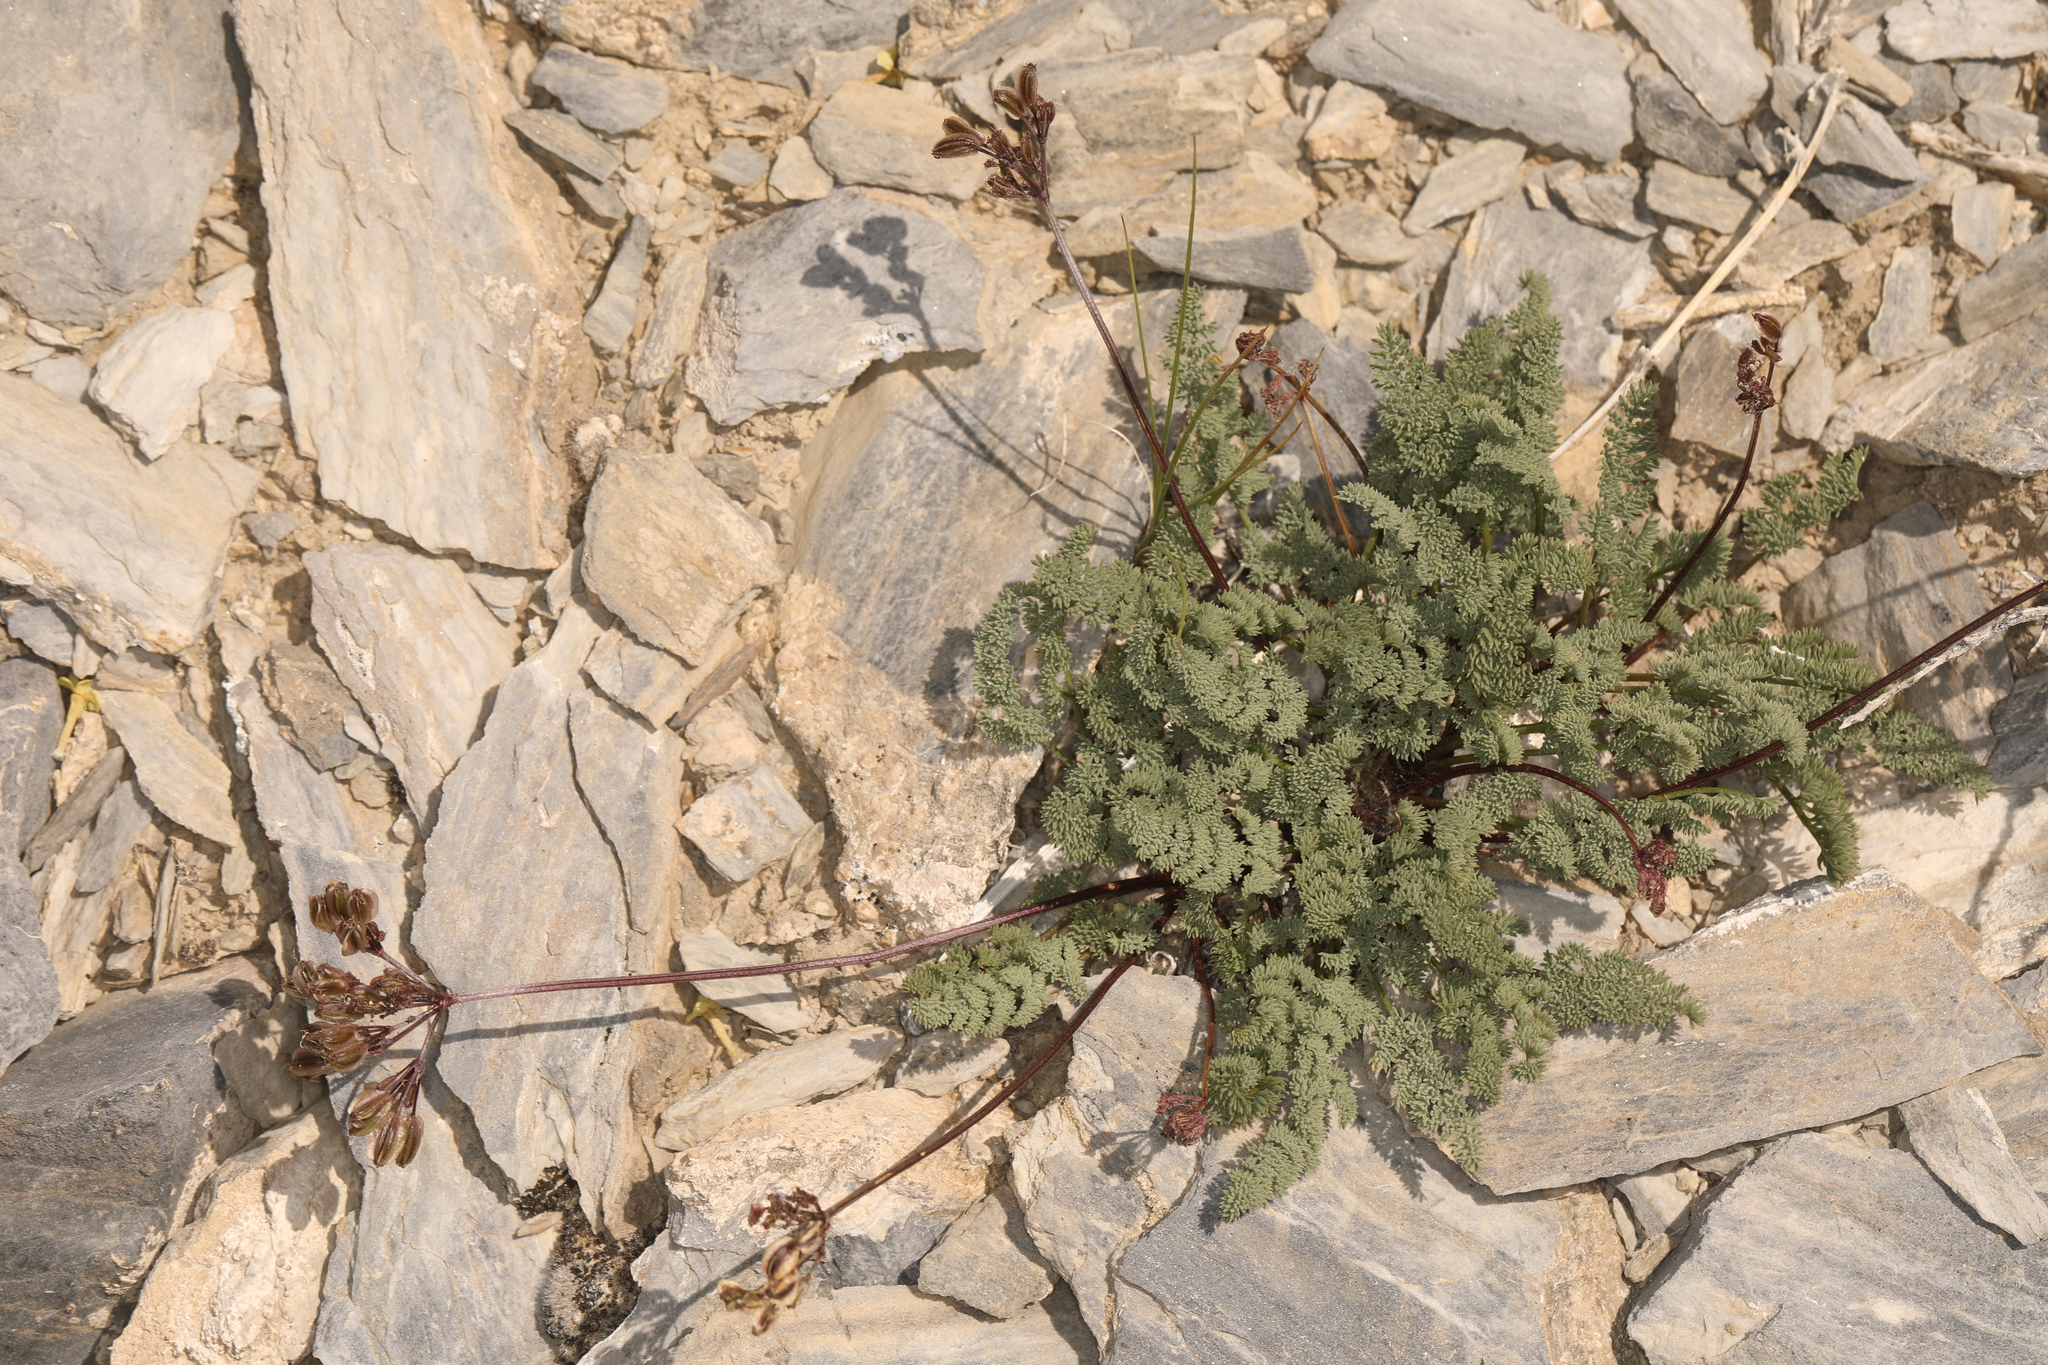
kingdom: Plantae
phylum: Tracheophyta
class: Magnoliopsida
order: Apiales
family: Apiaceae
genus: Aulospermum
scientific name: Aulospermum aboriginum
